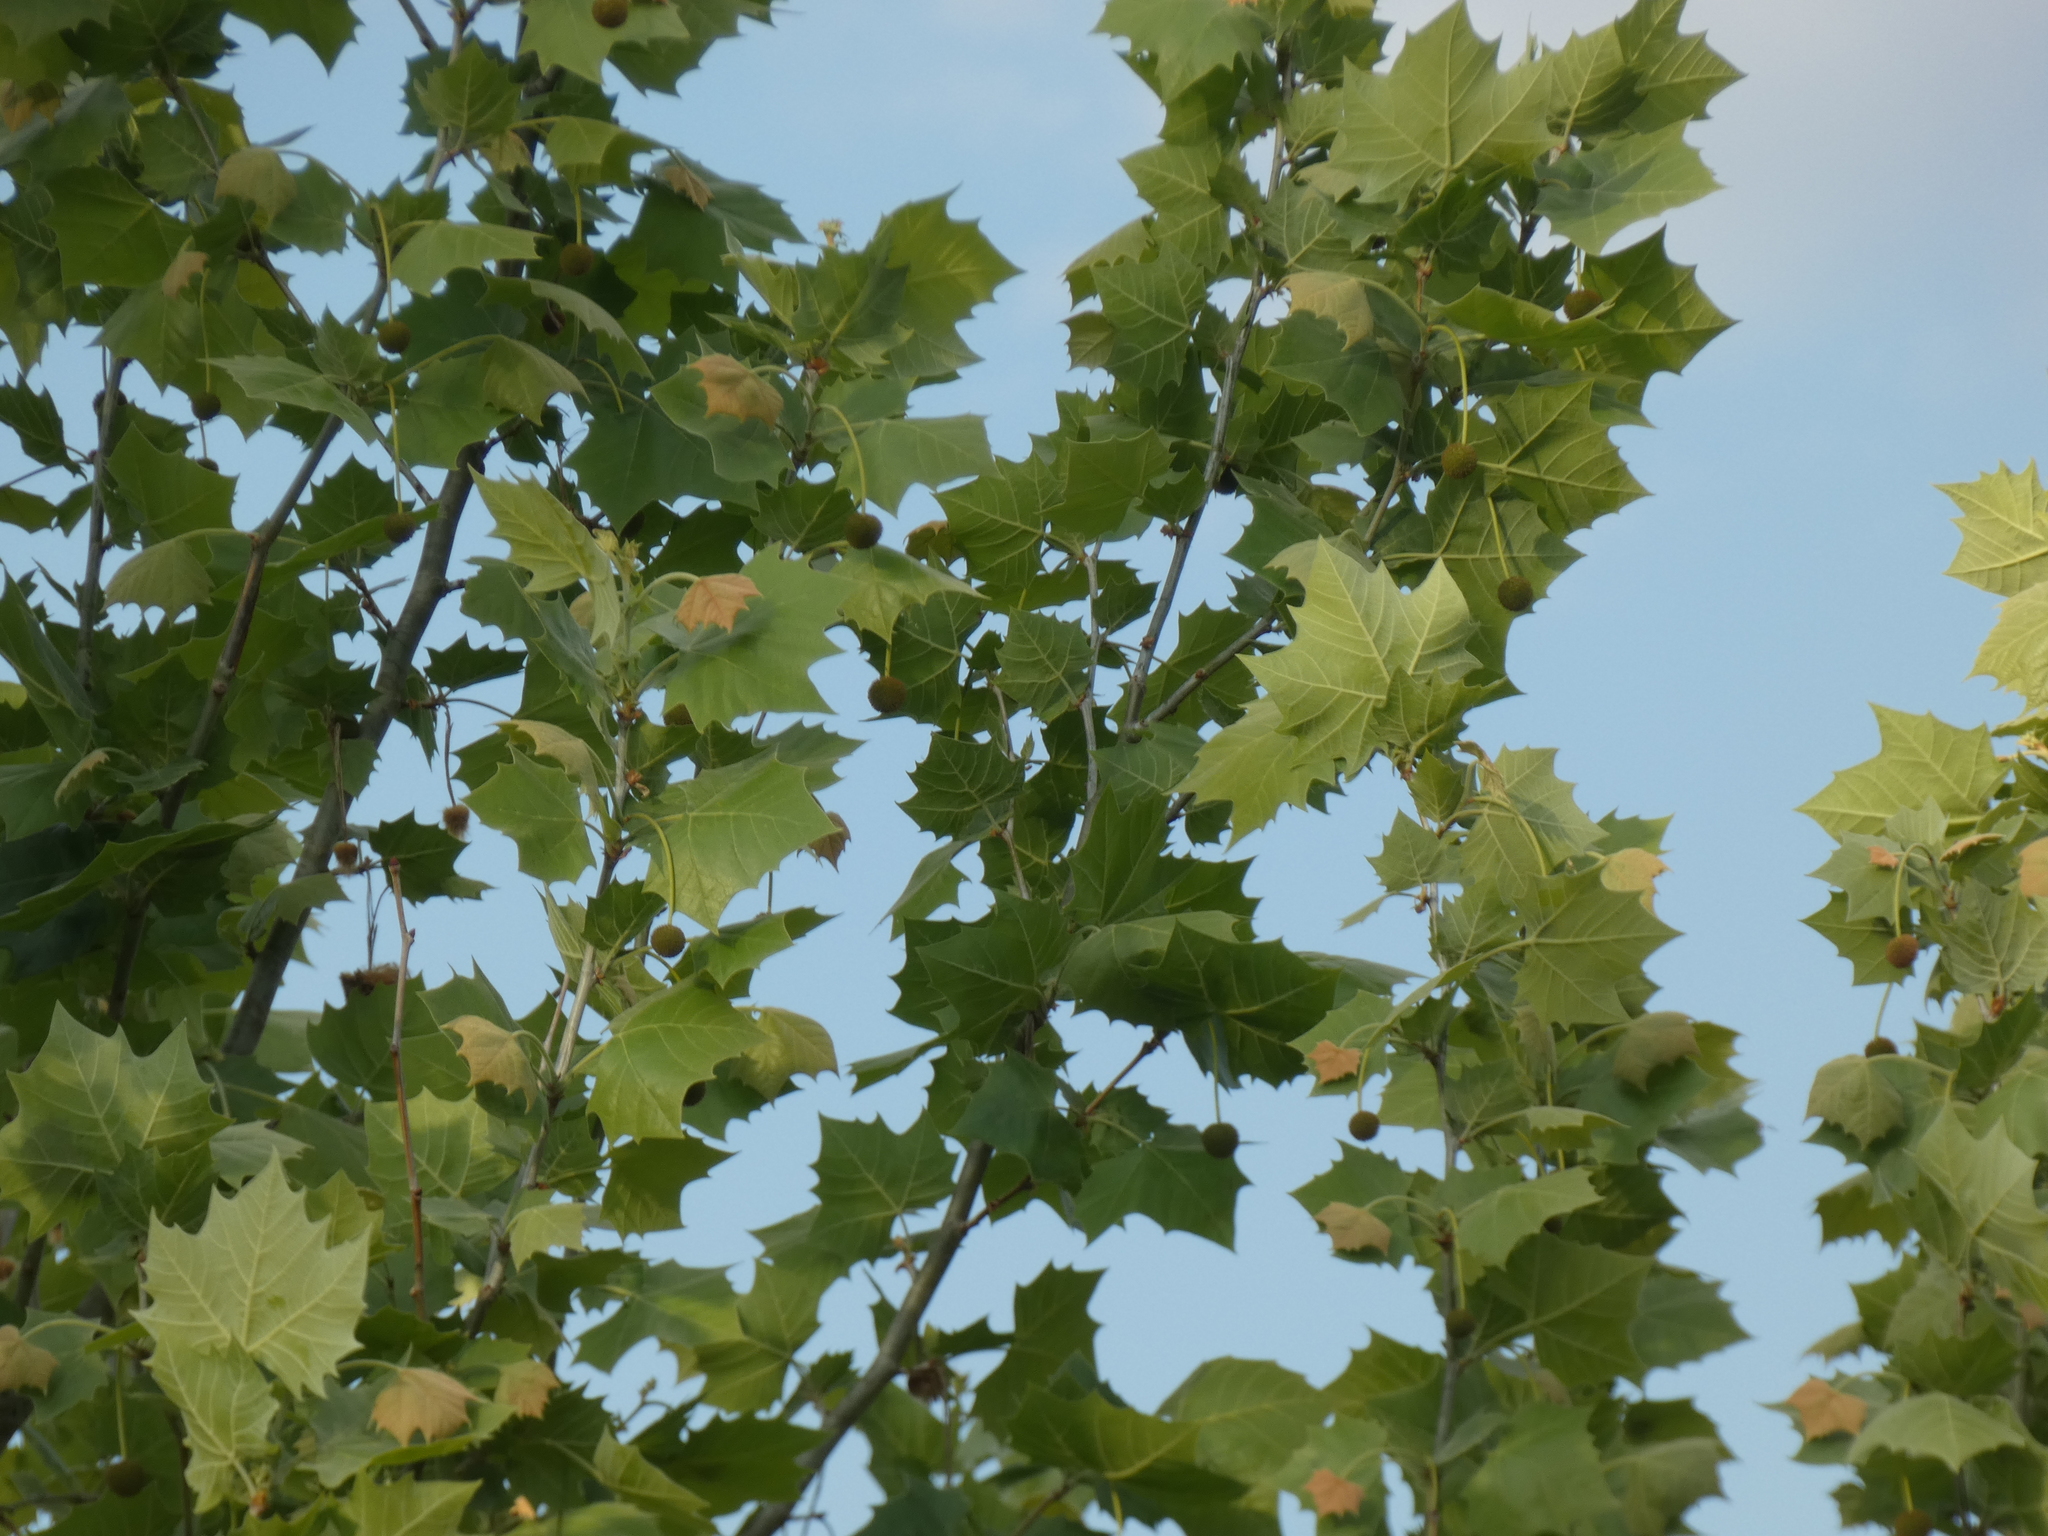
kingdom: Plantae
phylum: Tracheophyta
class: Magnoliopsida
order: Proteales
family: Platanaceae
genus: Platanus
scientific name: Platanus occidentalis
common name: American sycamore
